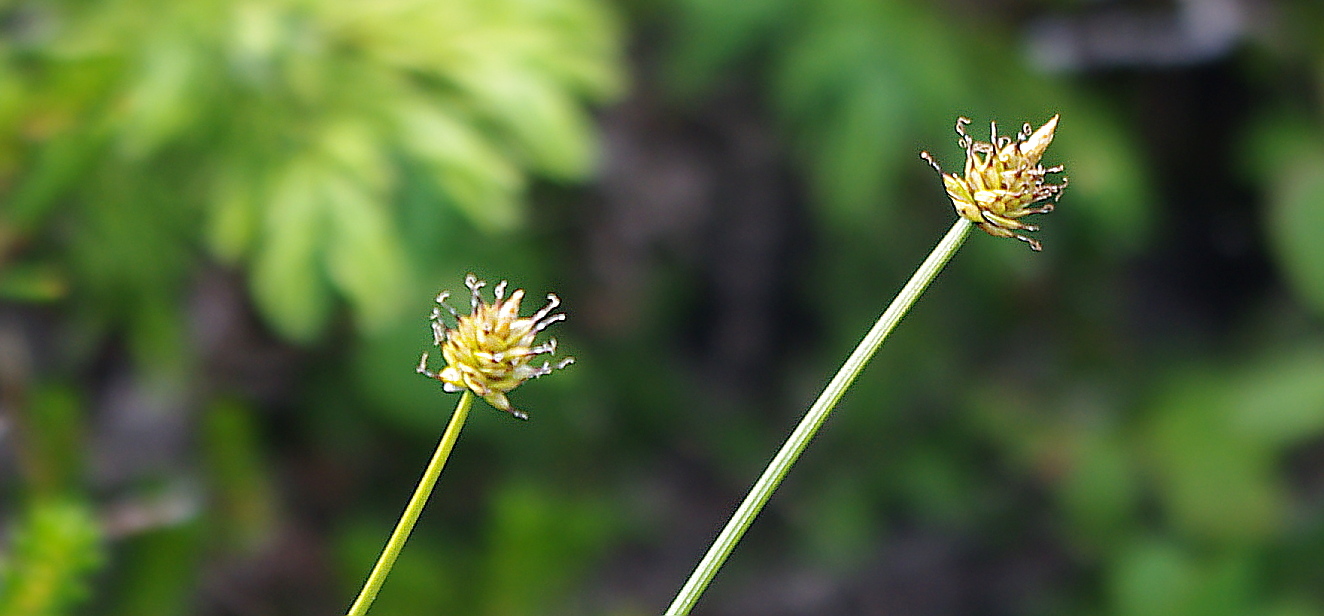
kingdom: Plantae
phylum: Tracheophyta
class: Liliopsida
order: Poales
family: Cyperaceae
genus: Carex
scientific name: Carex capitata
